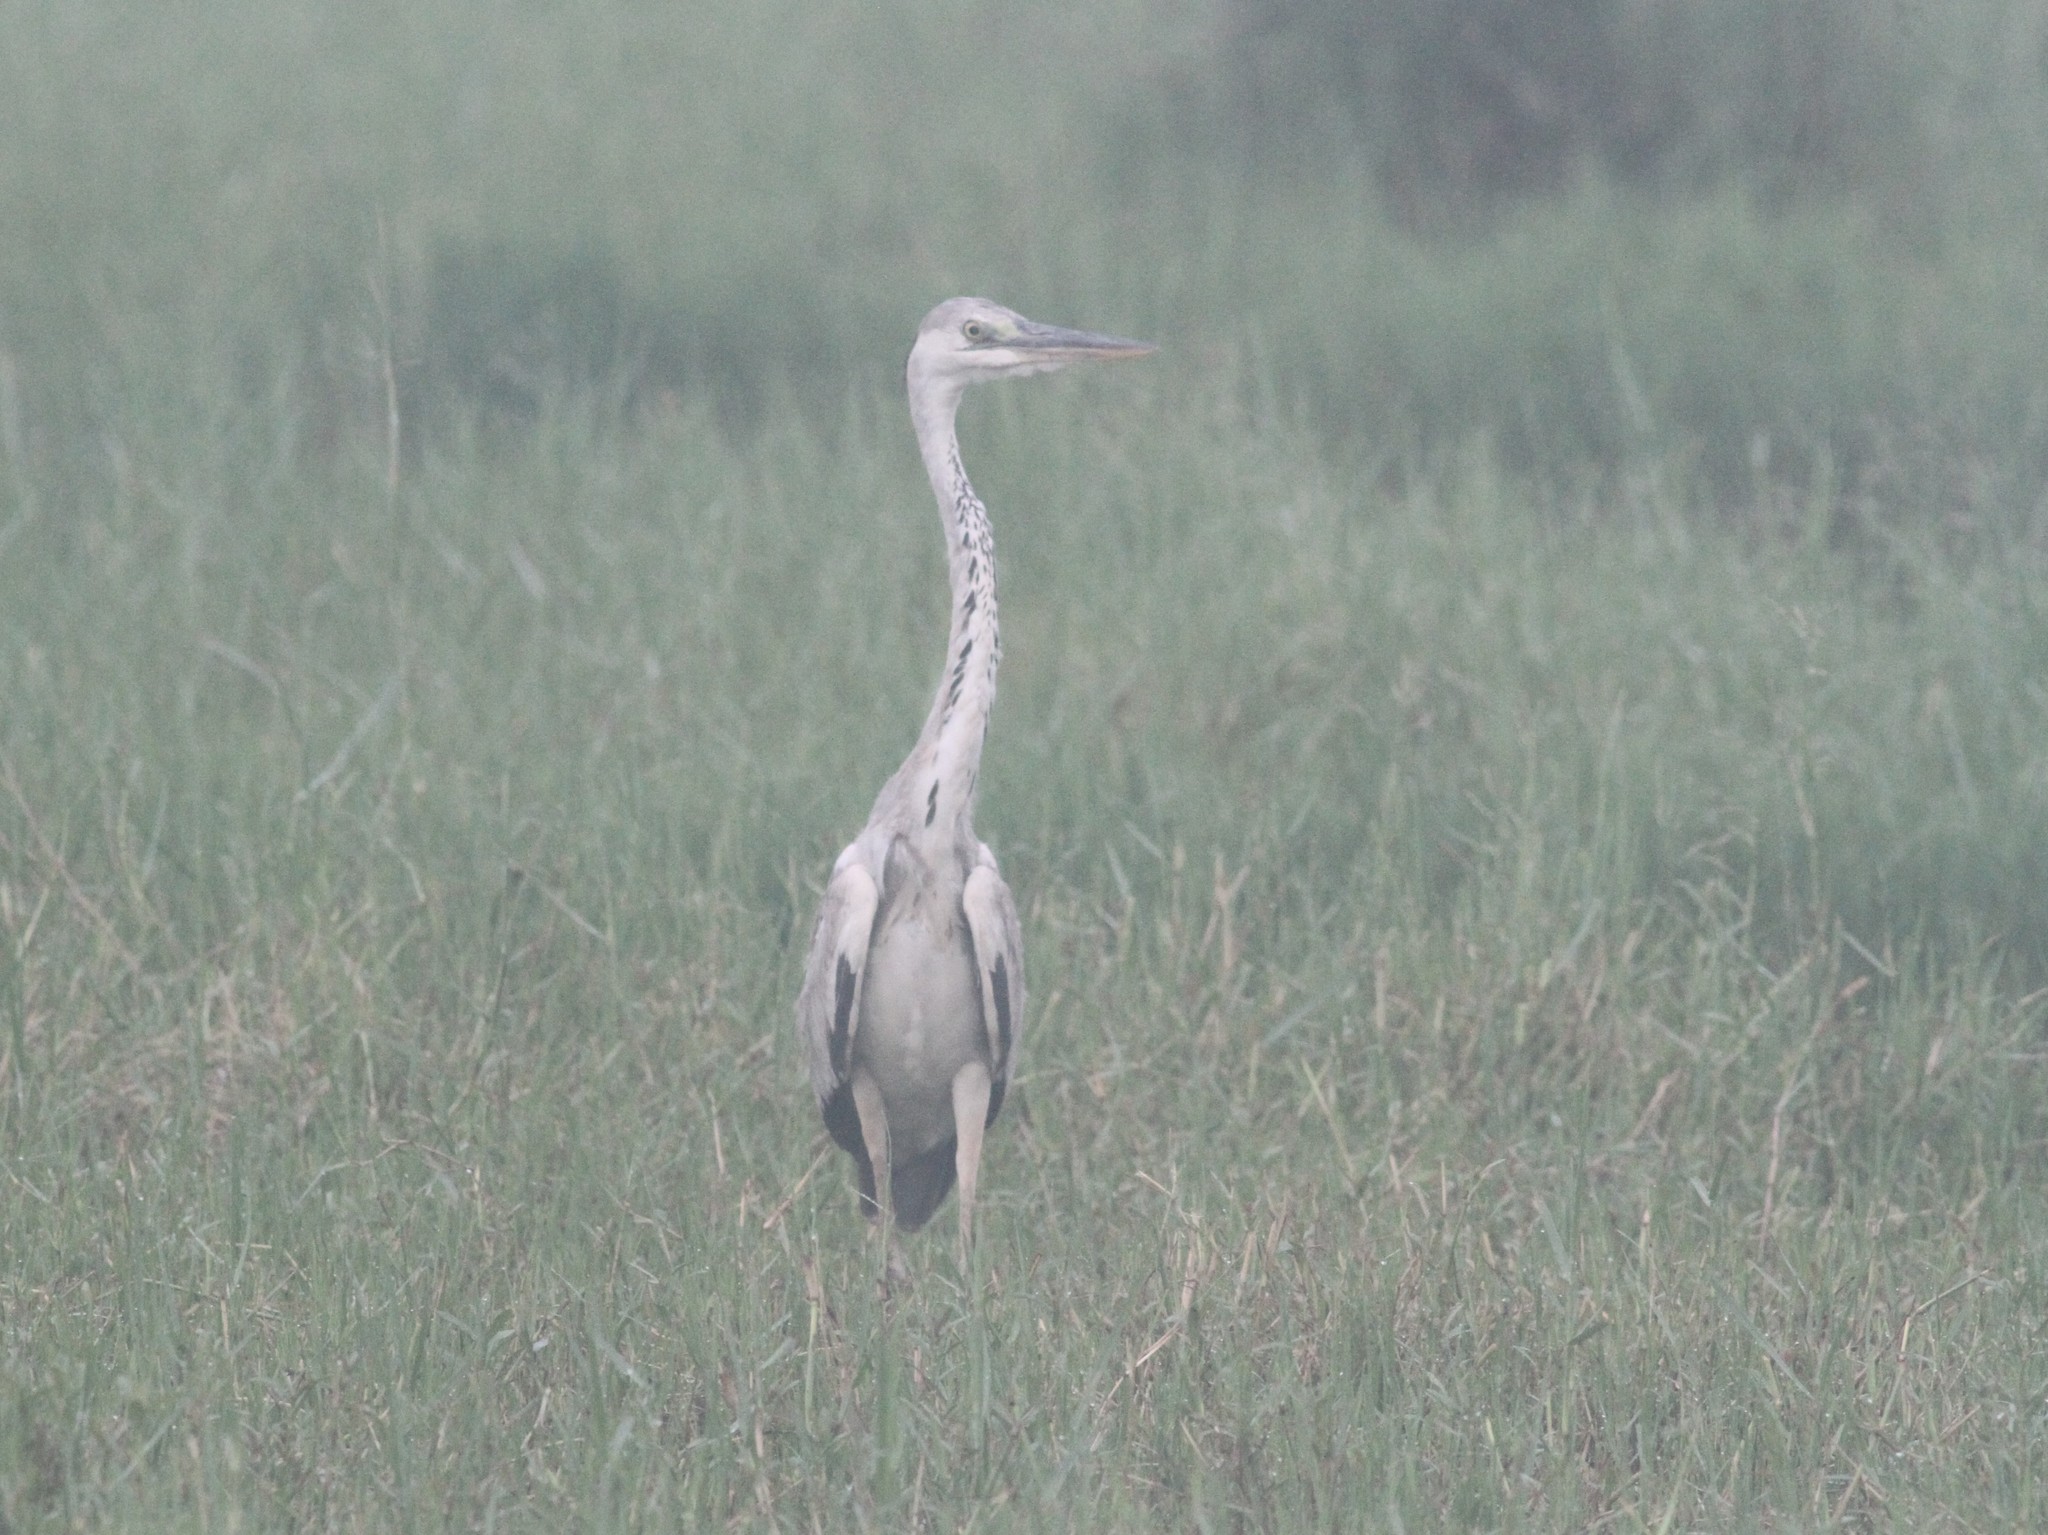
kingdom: Animalia
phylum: Chordata
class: Aves
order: Pelecaniformes
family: Ardeidae
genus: Ardea
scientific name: Ardea cinerea
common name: Grey heron
